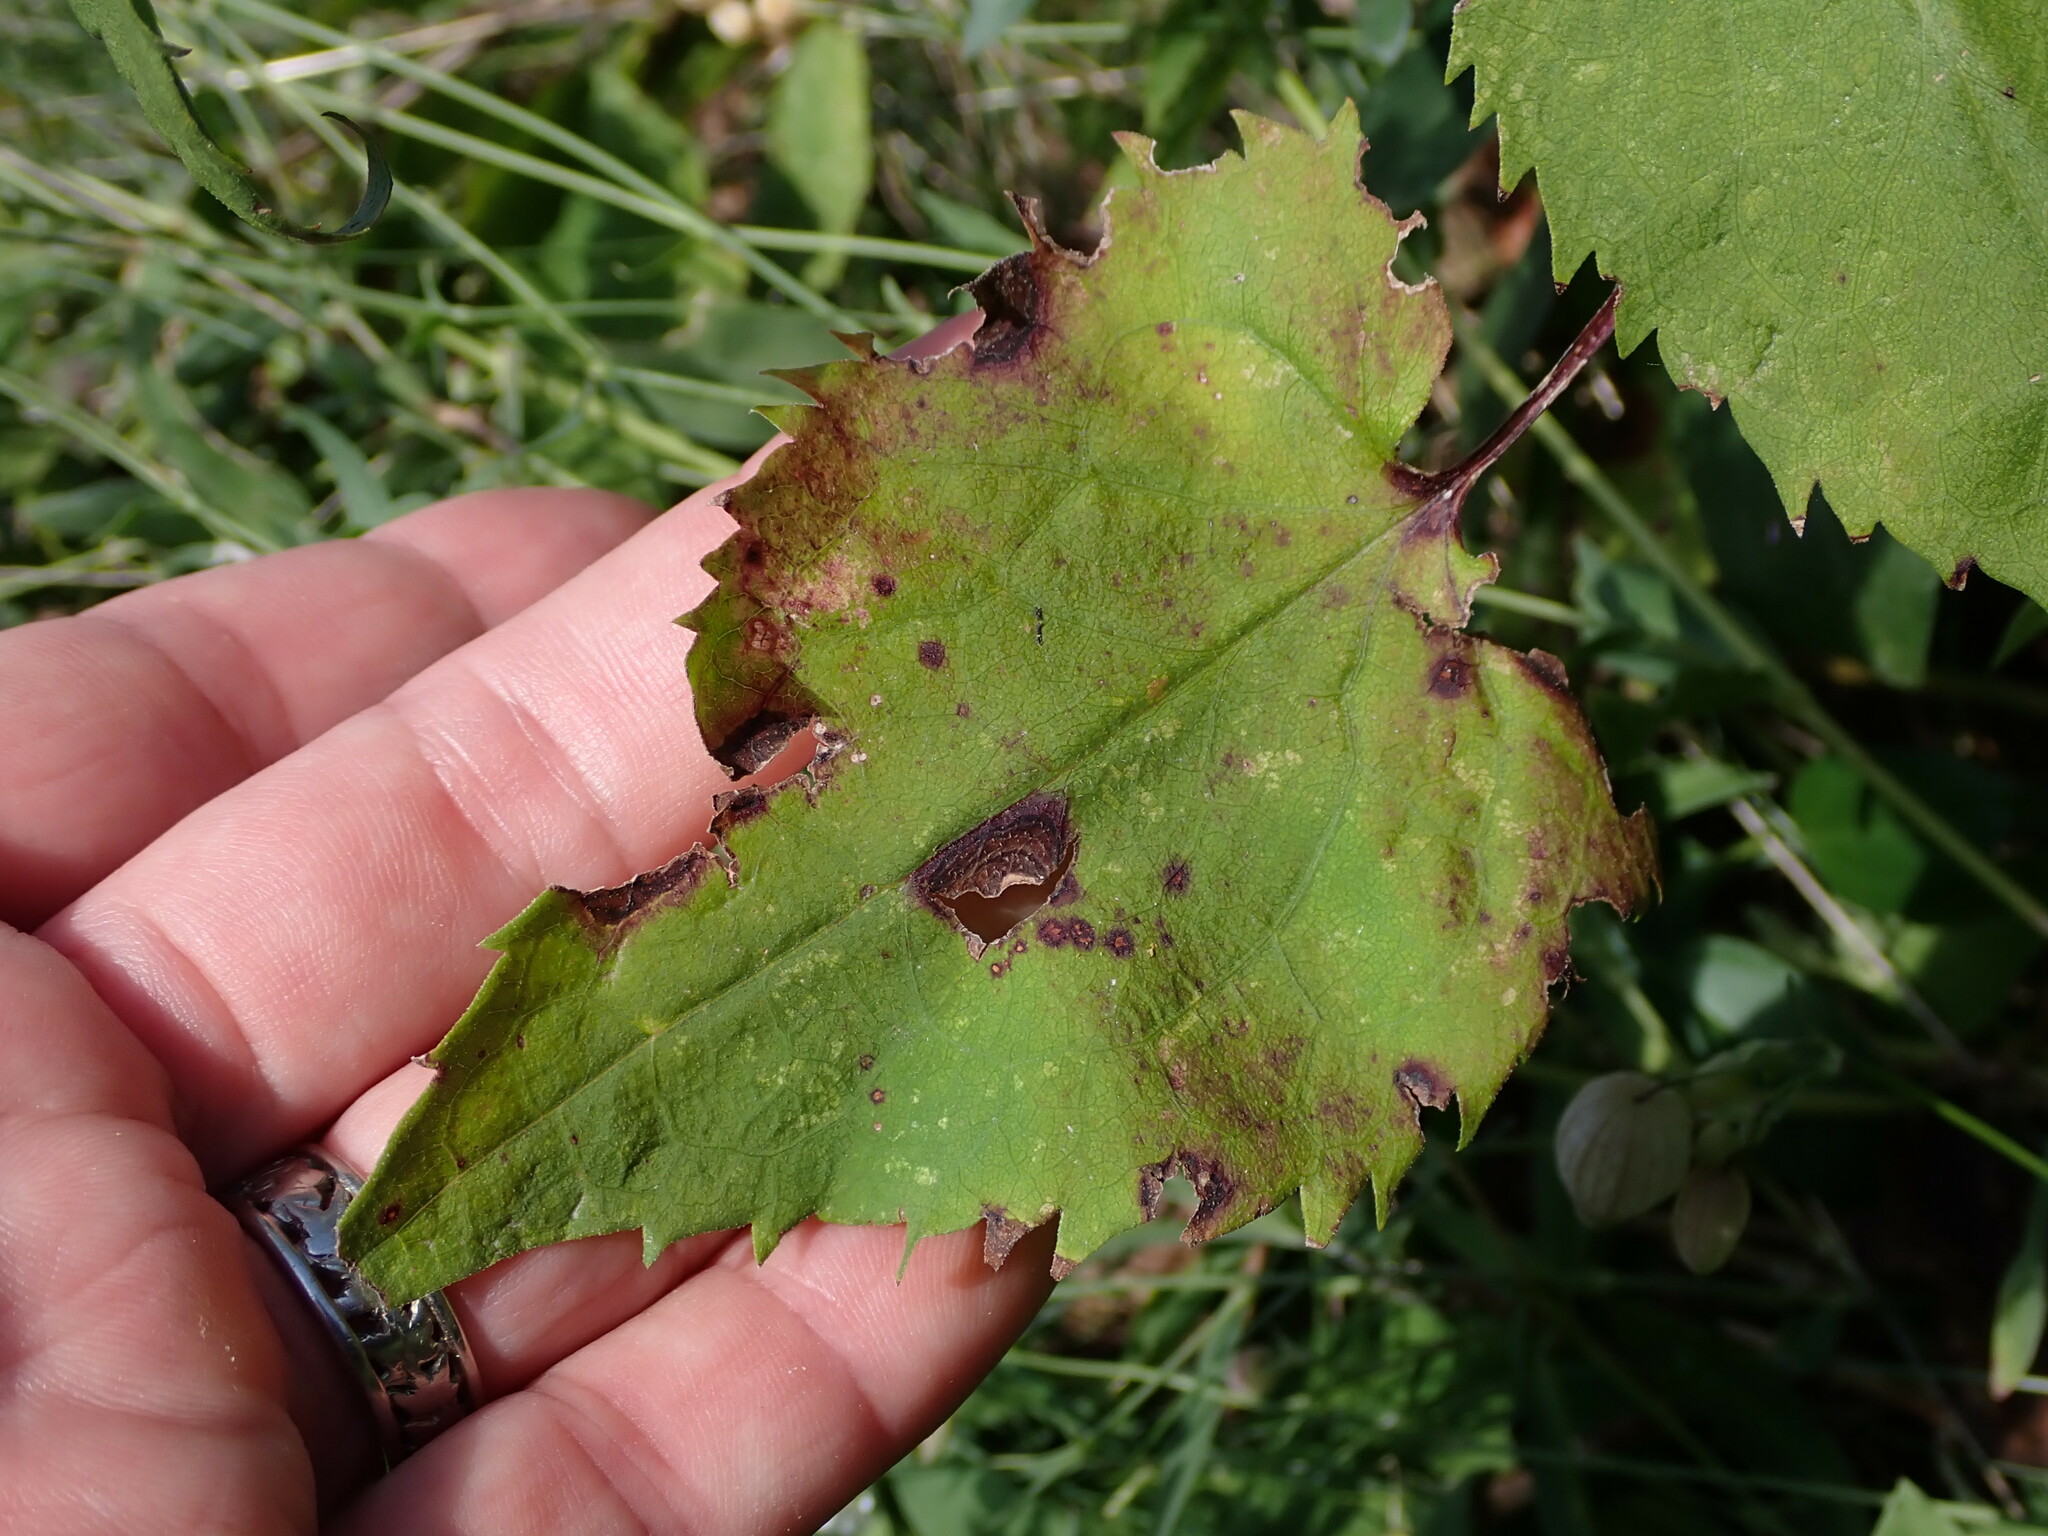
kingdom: Plantae
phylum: Tracheophyta
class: Magnoliopsida
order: Asterales
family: Asteraceae
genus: Symphyotrichum
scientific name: Symphyotrichum cordifolium
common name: Beeweed
